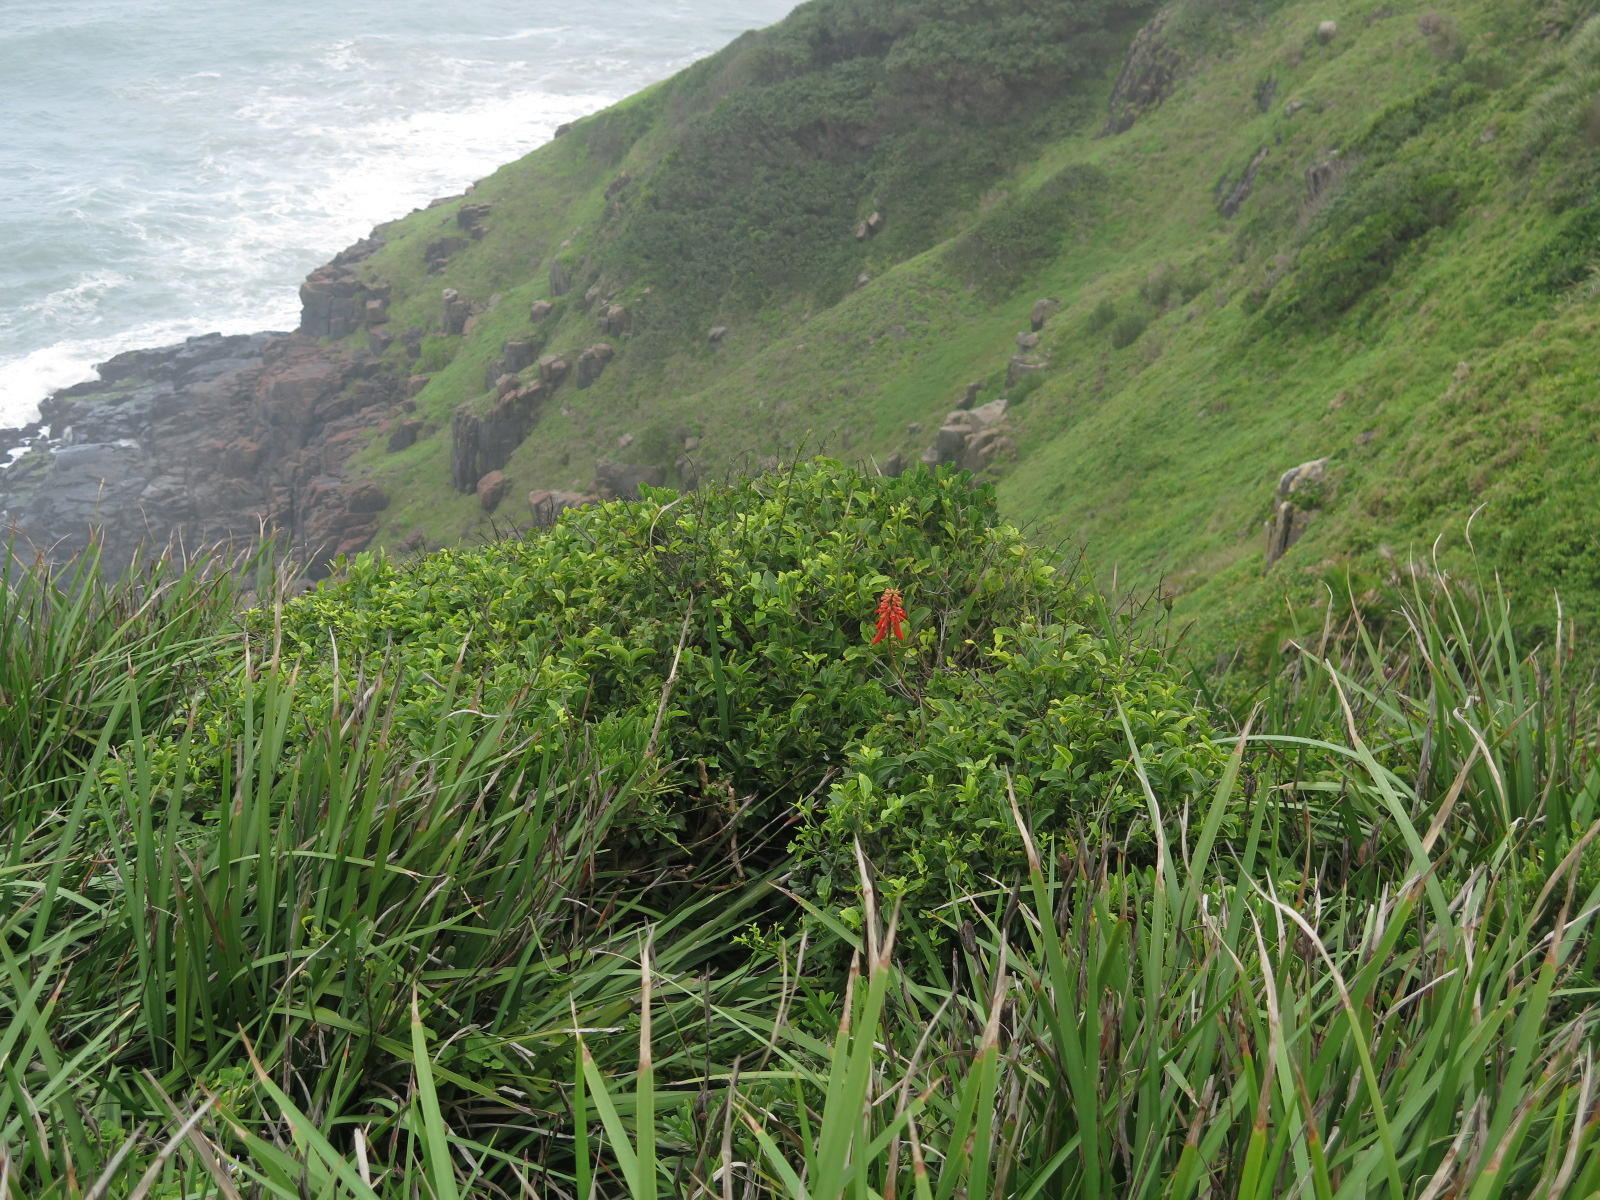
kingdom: Plantae
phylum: Tracheophyta
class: Magnoliopsida
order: Fabales
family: Fabaceae
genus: Erythrina
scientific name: Erythrina humeana
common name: Dwarf coral tree
